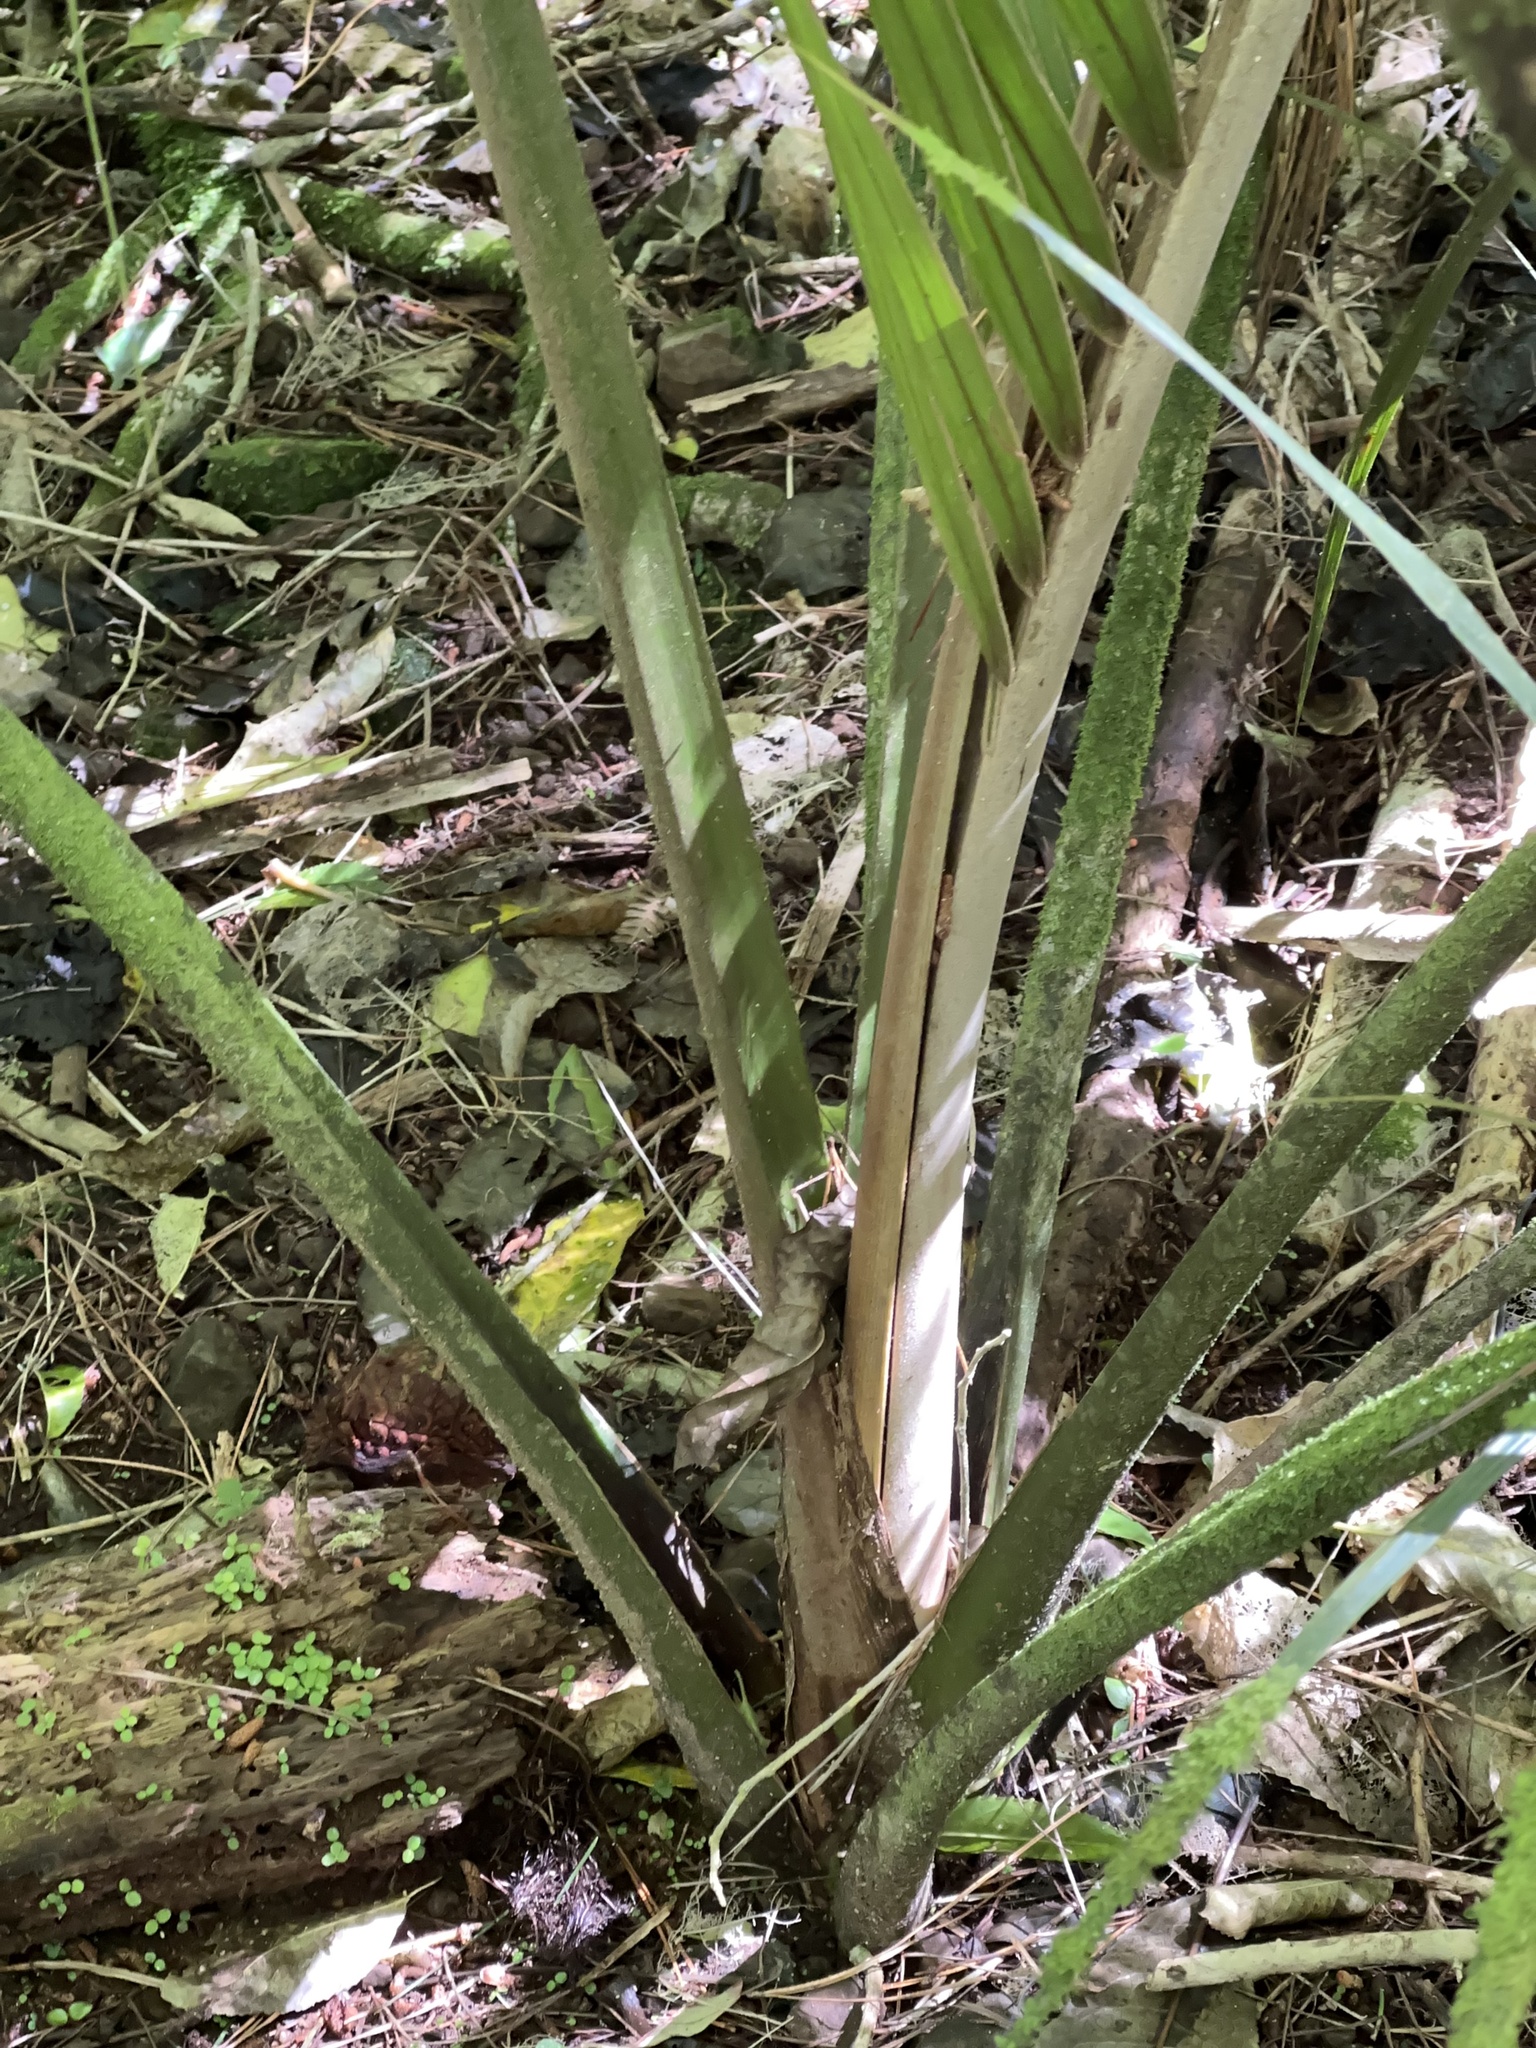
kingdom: Plantae
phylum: Tracheophyta
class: Liliopsida
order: Arecales
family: Arecaceae
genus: Rhopalostylis
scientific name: Rhopalostylis sapida
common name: Feather-duster palm
